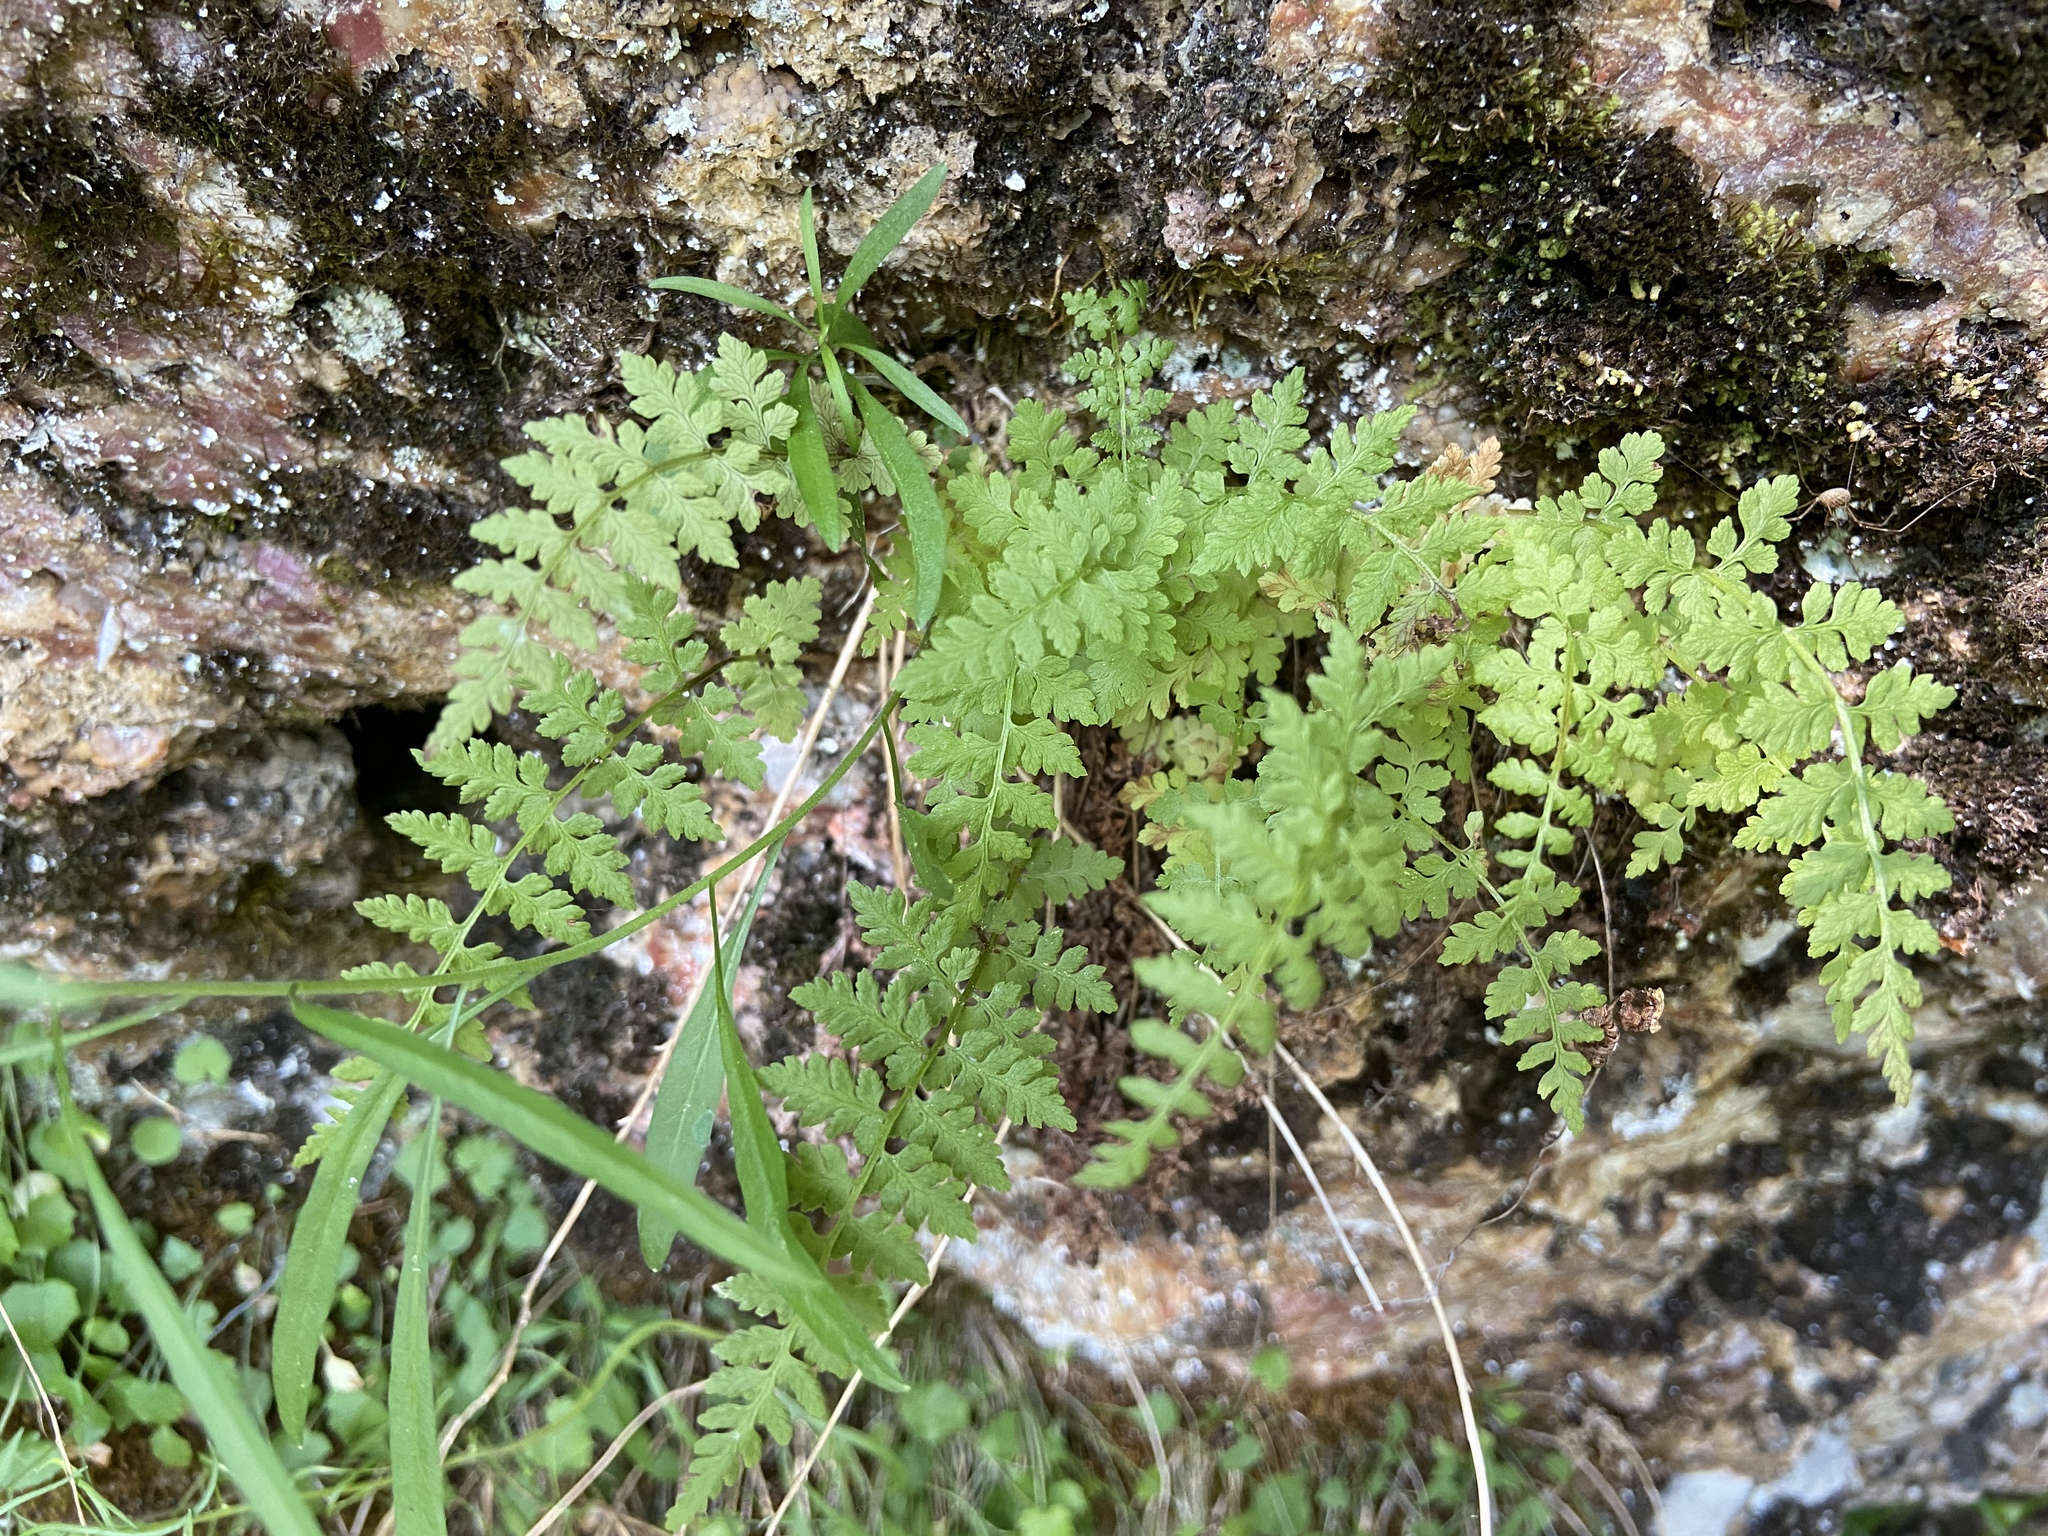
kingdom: Plantae
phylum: Tracheophyta
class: Polypodiopsida
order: Polypodiales
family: Cystopteridaceae
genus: Cystopteris
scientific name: Cystopteris fragilis
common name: Brittle bladder fern
